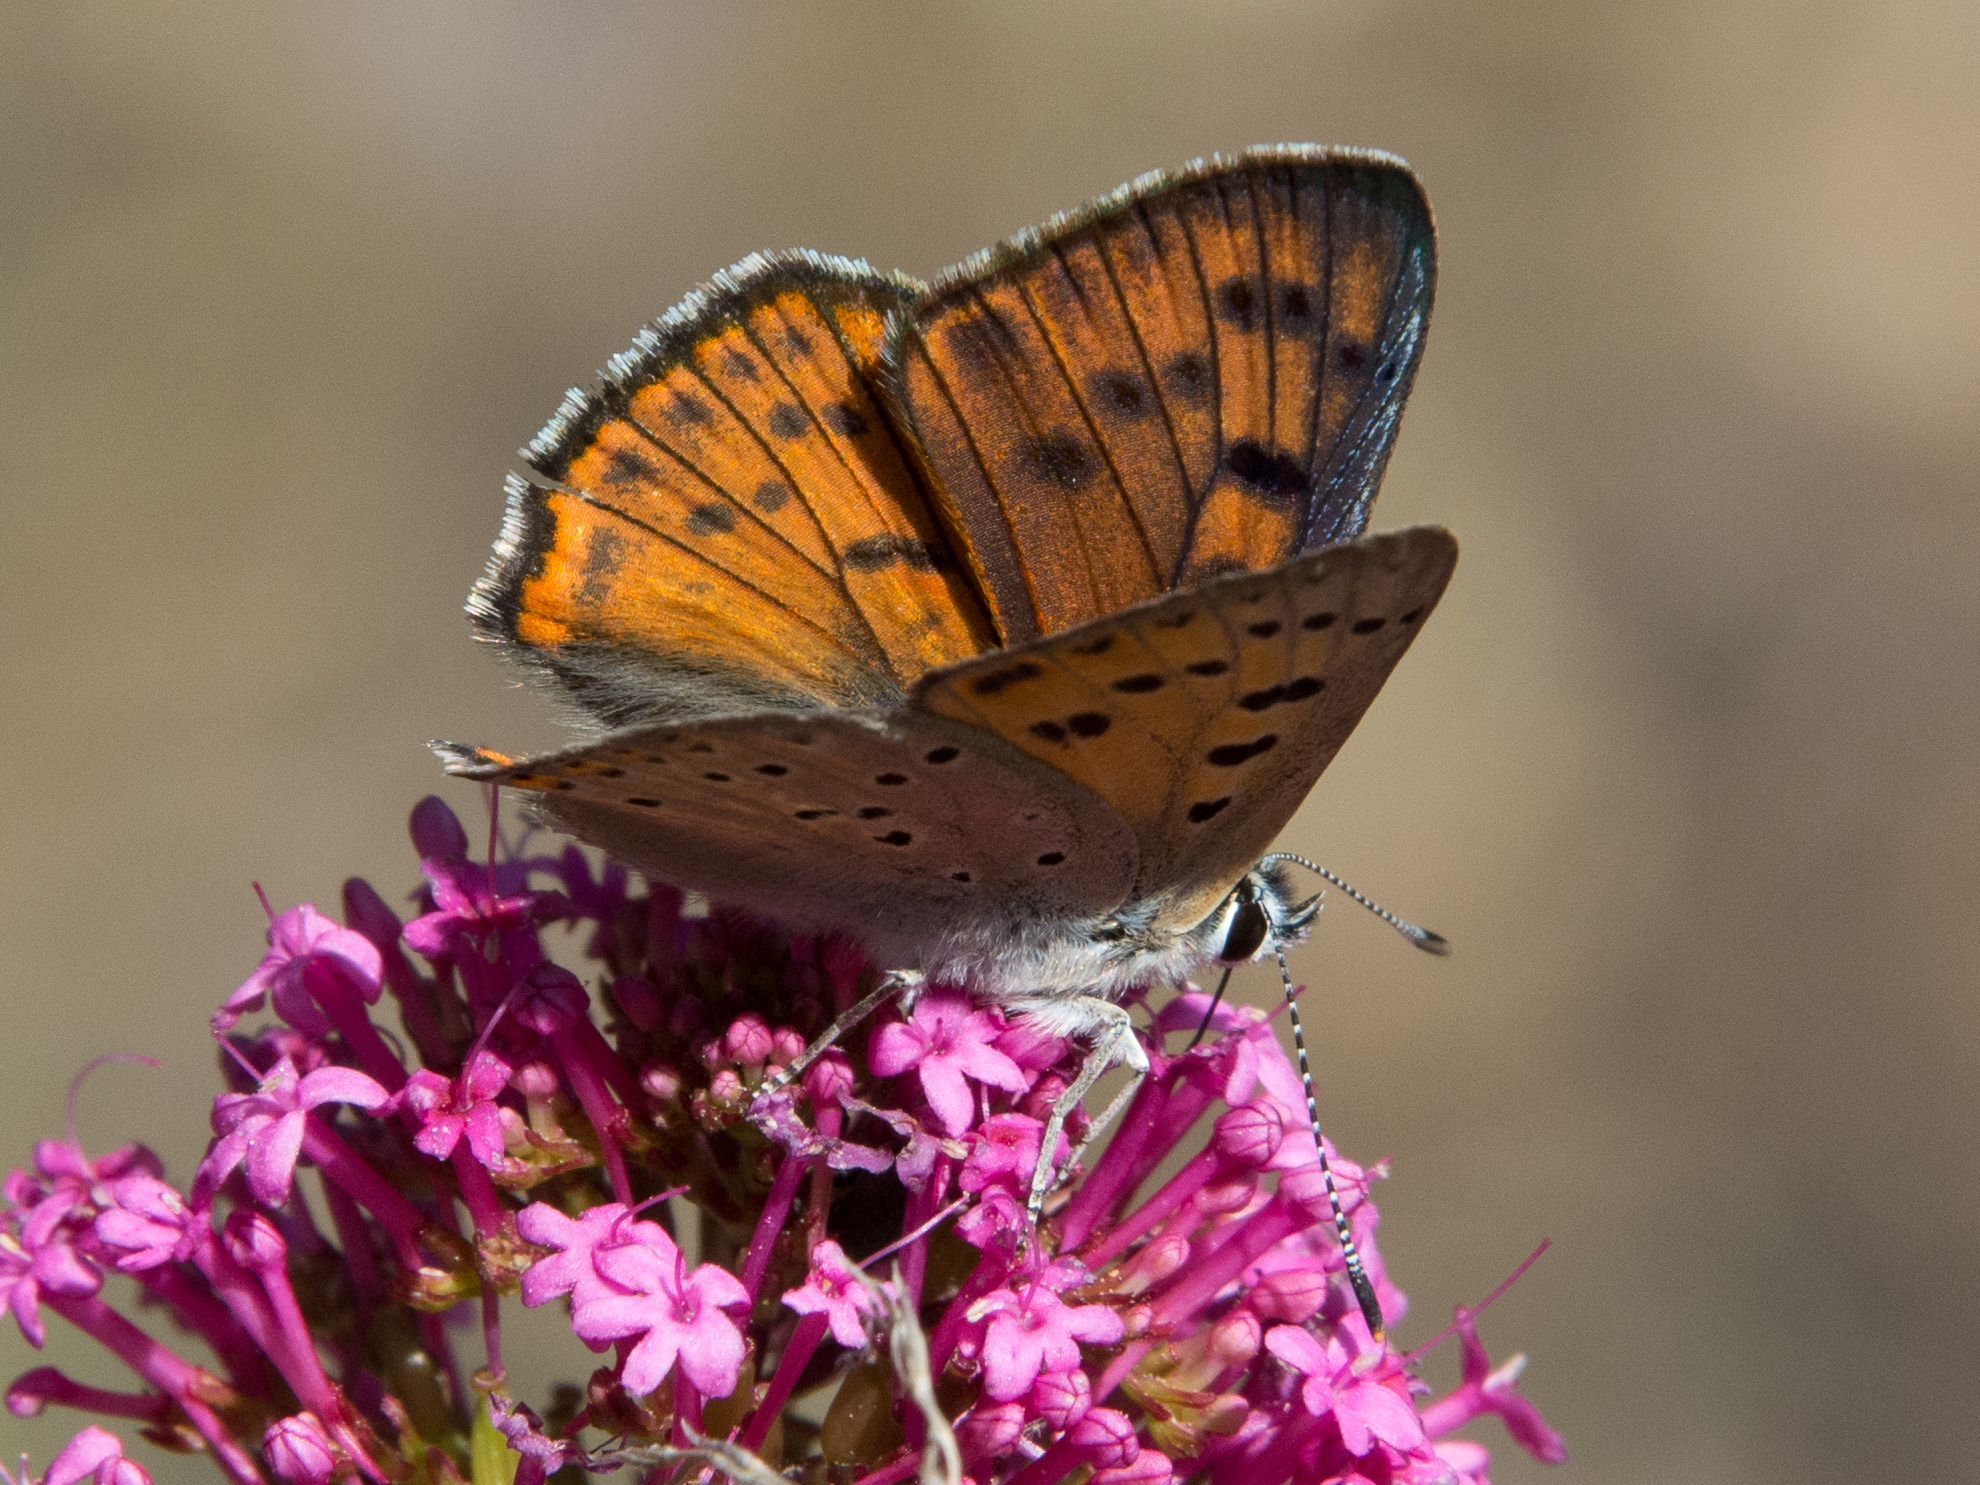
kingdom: Animalia
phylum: Arthropoda
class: Insecta
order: Lepidoptera
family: Lycaenidae
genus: Lycaena
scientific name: Lycaena alciphron
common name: Purple-shot copper
